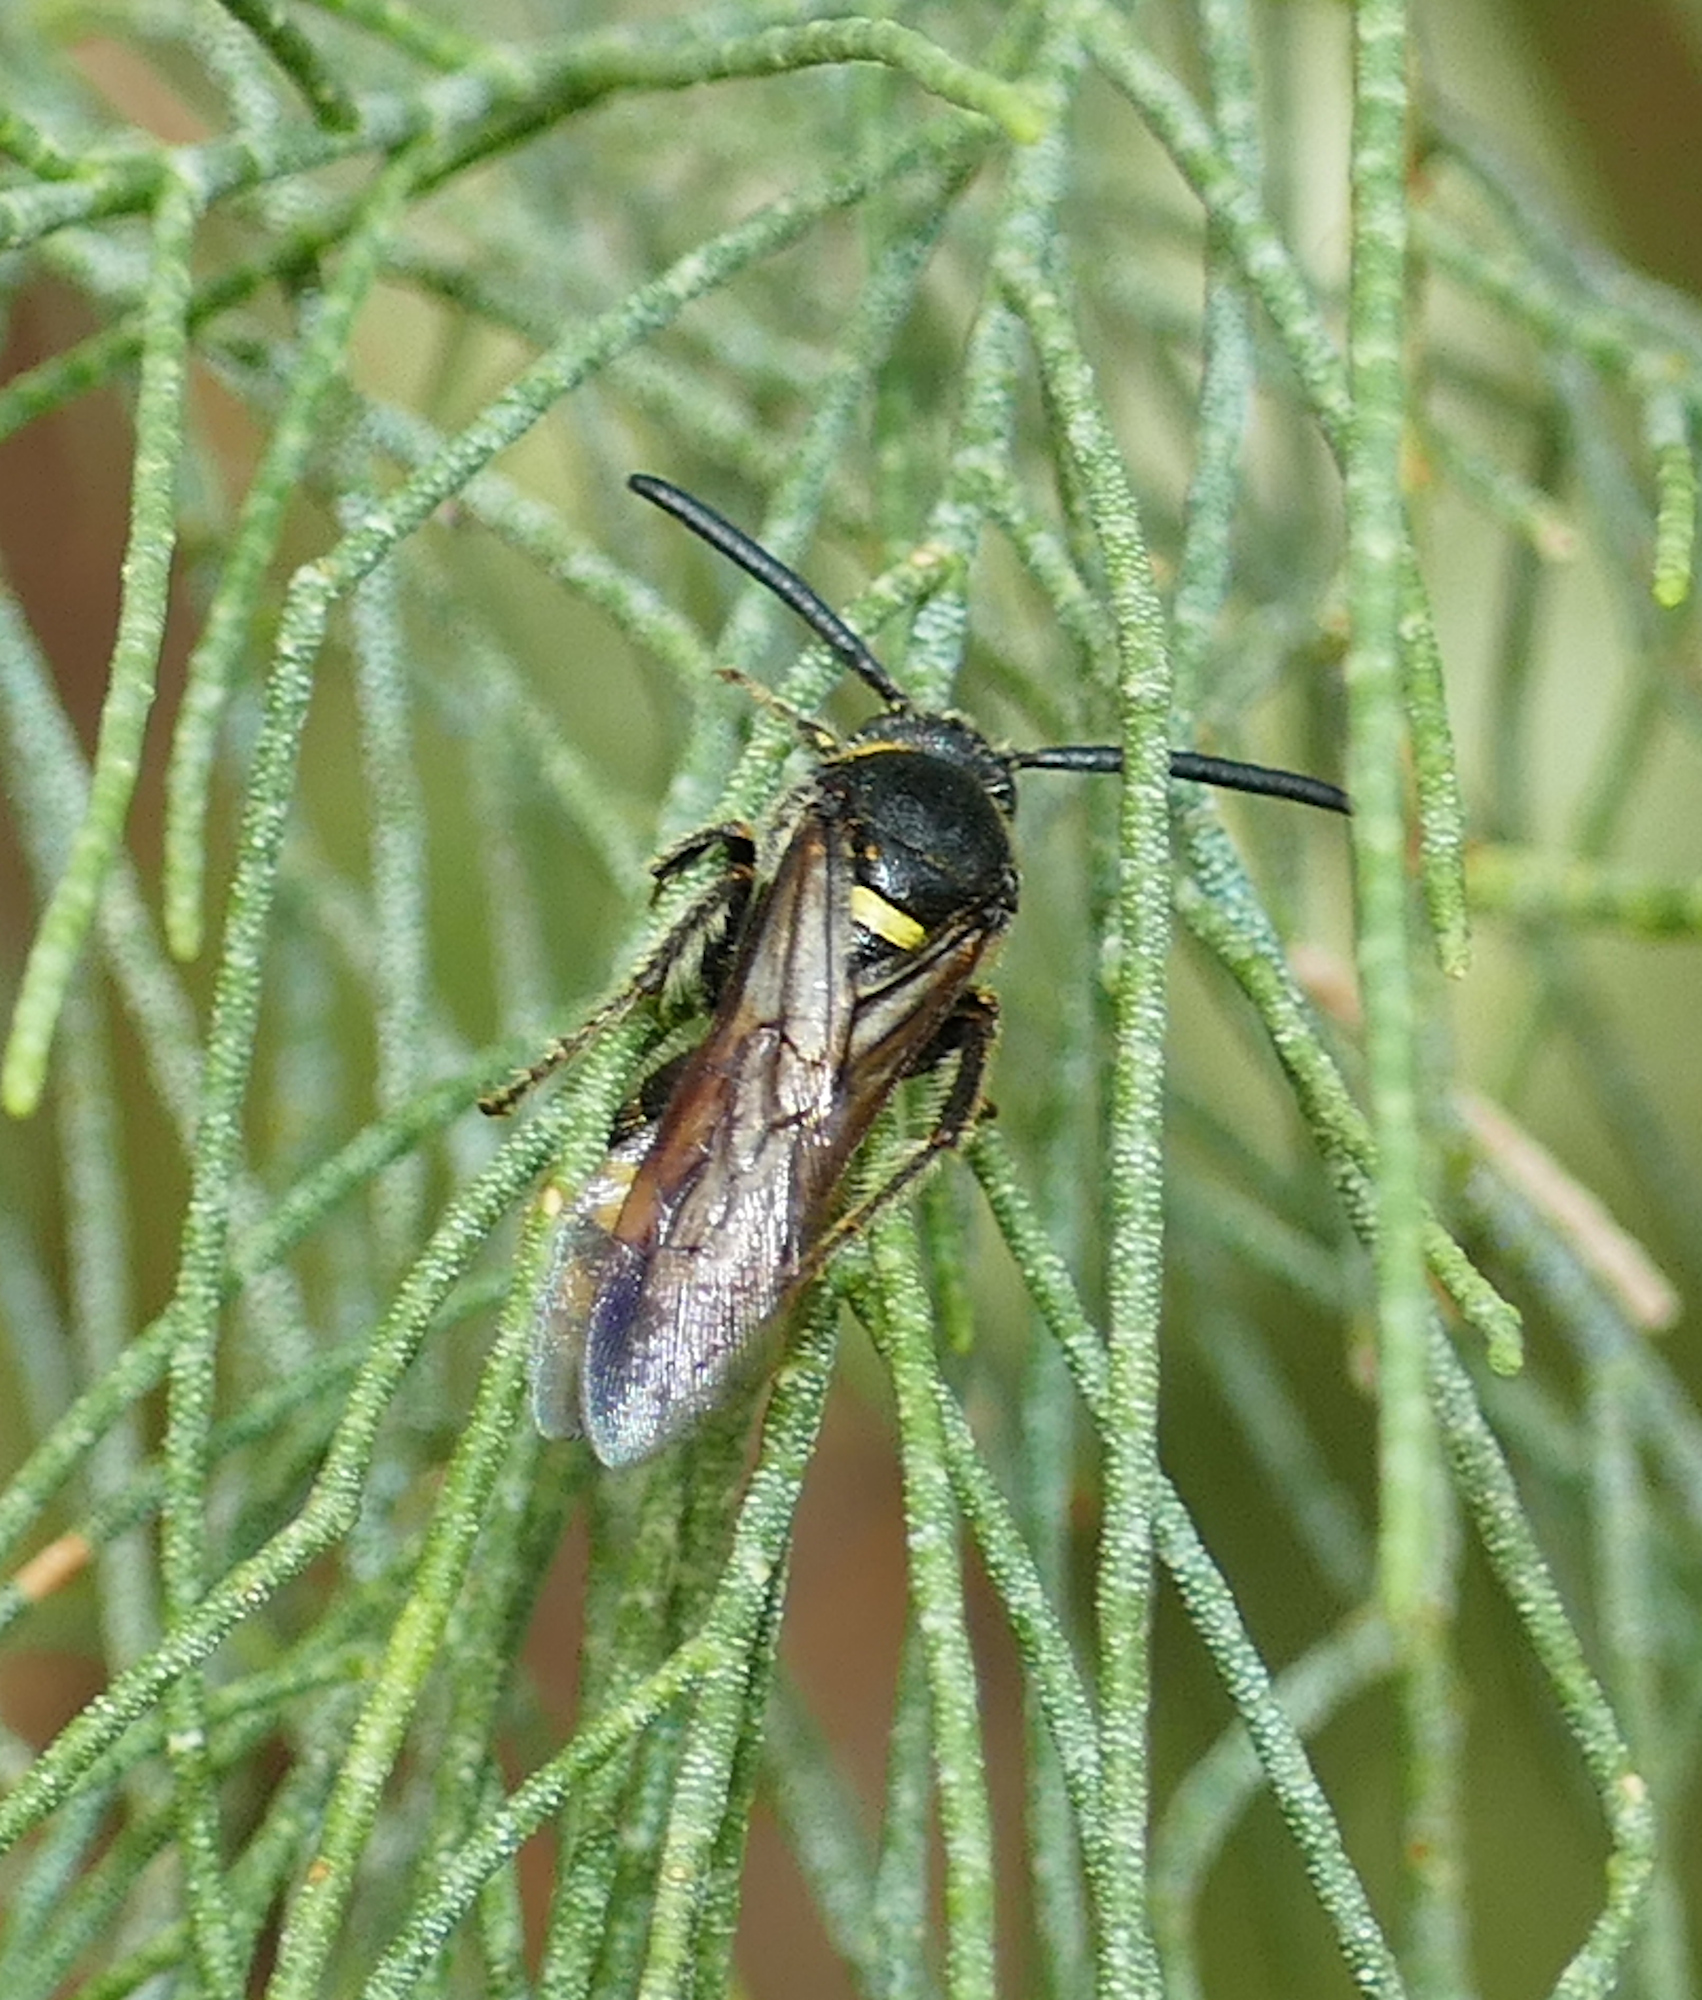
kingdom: Animalia
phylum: Arthropoda
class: Insecta
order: Hymenoptera
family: Scoliidae
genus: Scolia
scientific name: Scolia nobilitata
